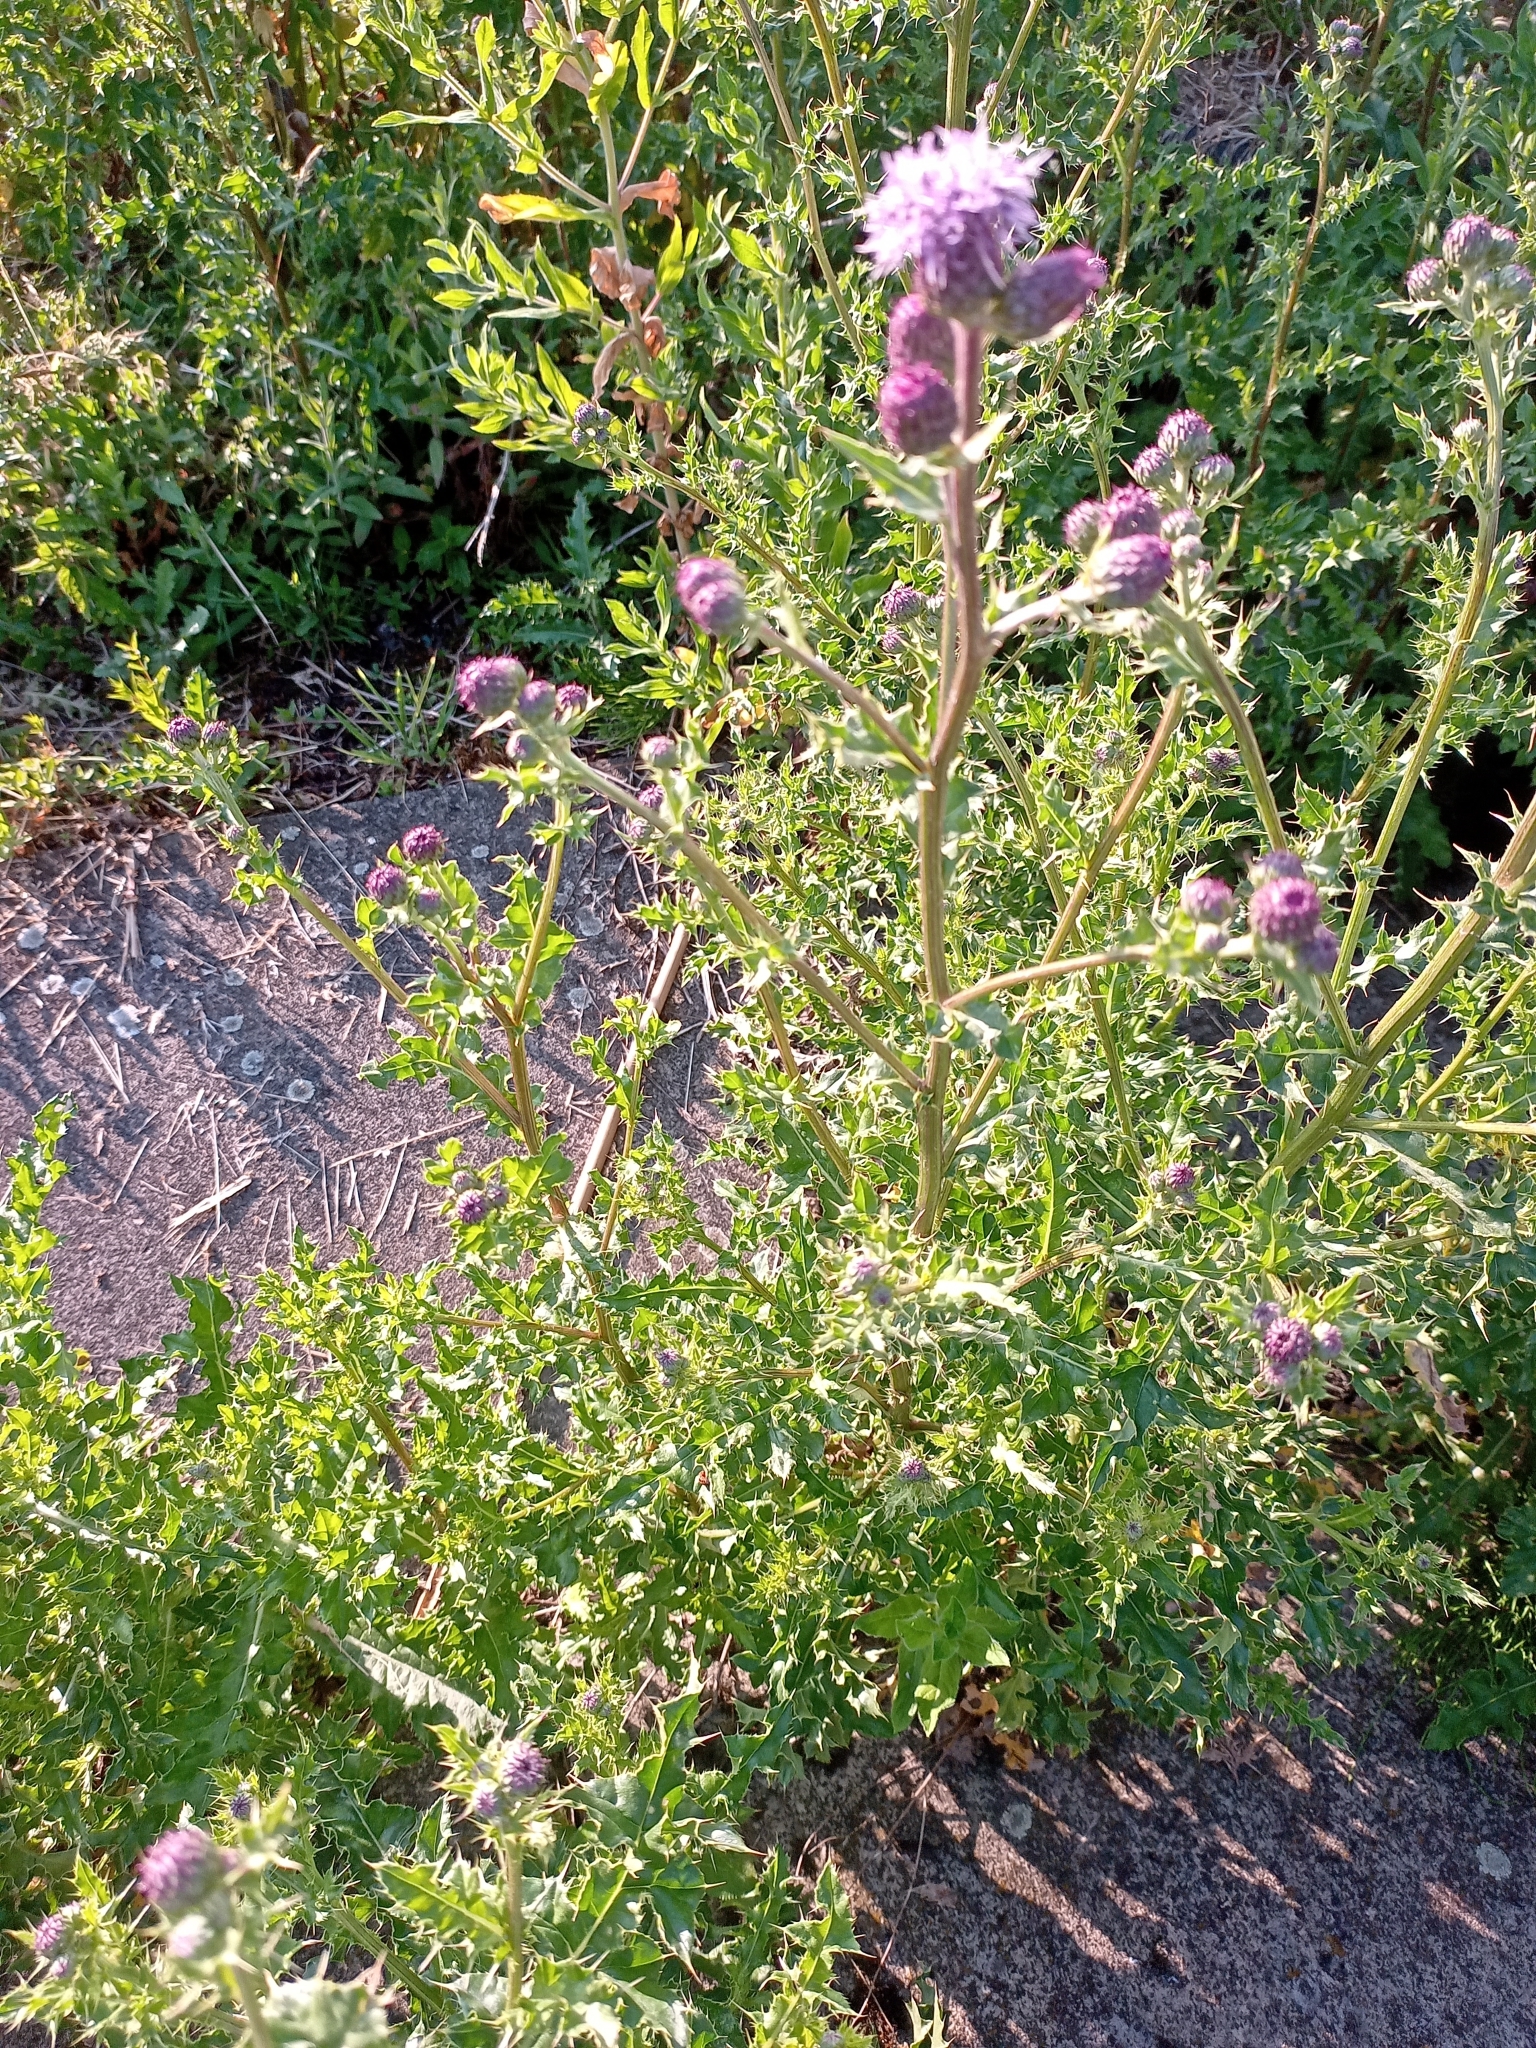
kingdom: Plantae
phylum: Tracheophyta
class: Magnoliopsida
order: Asterales
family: Asteraceae
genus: Cirsium
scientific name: Cirsium arvense
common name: Creeping thistle
